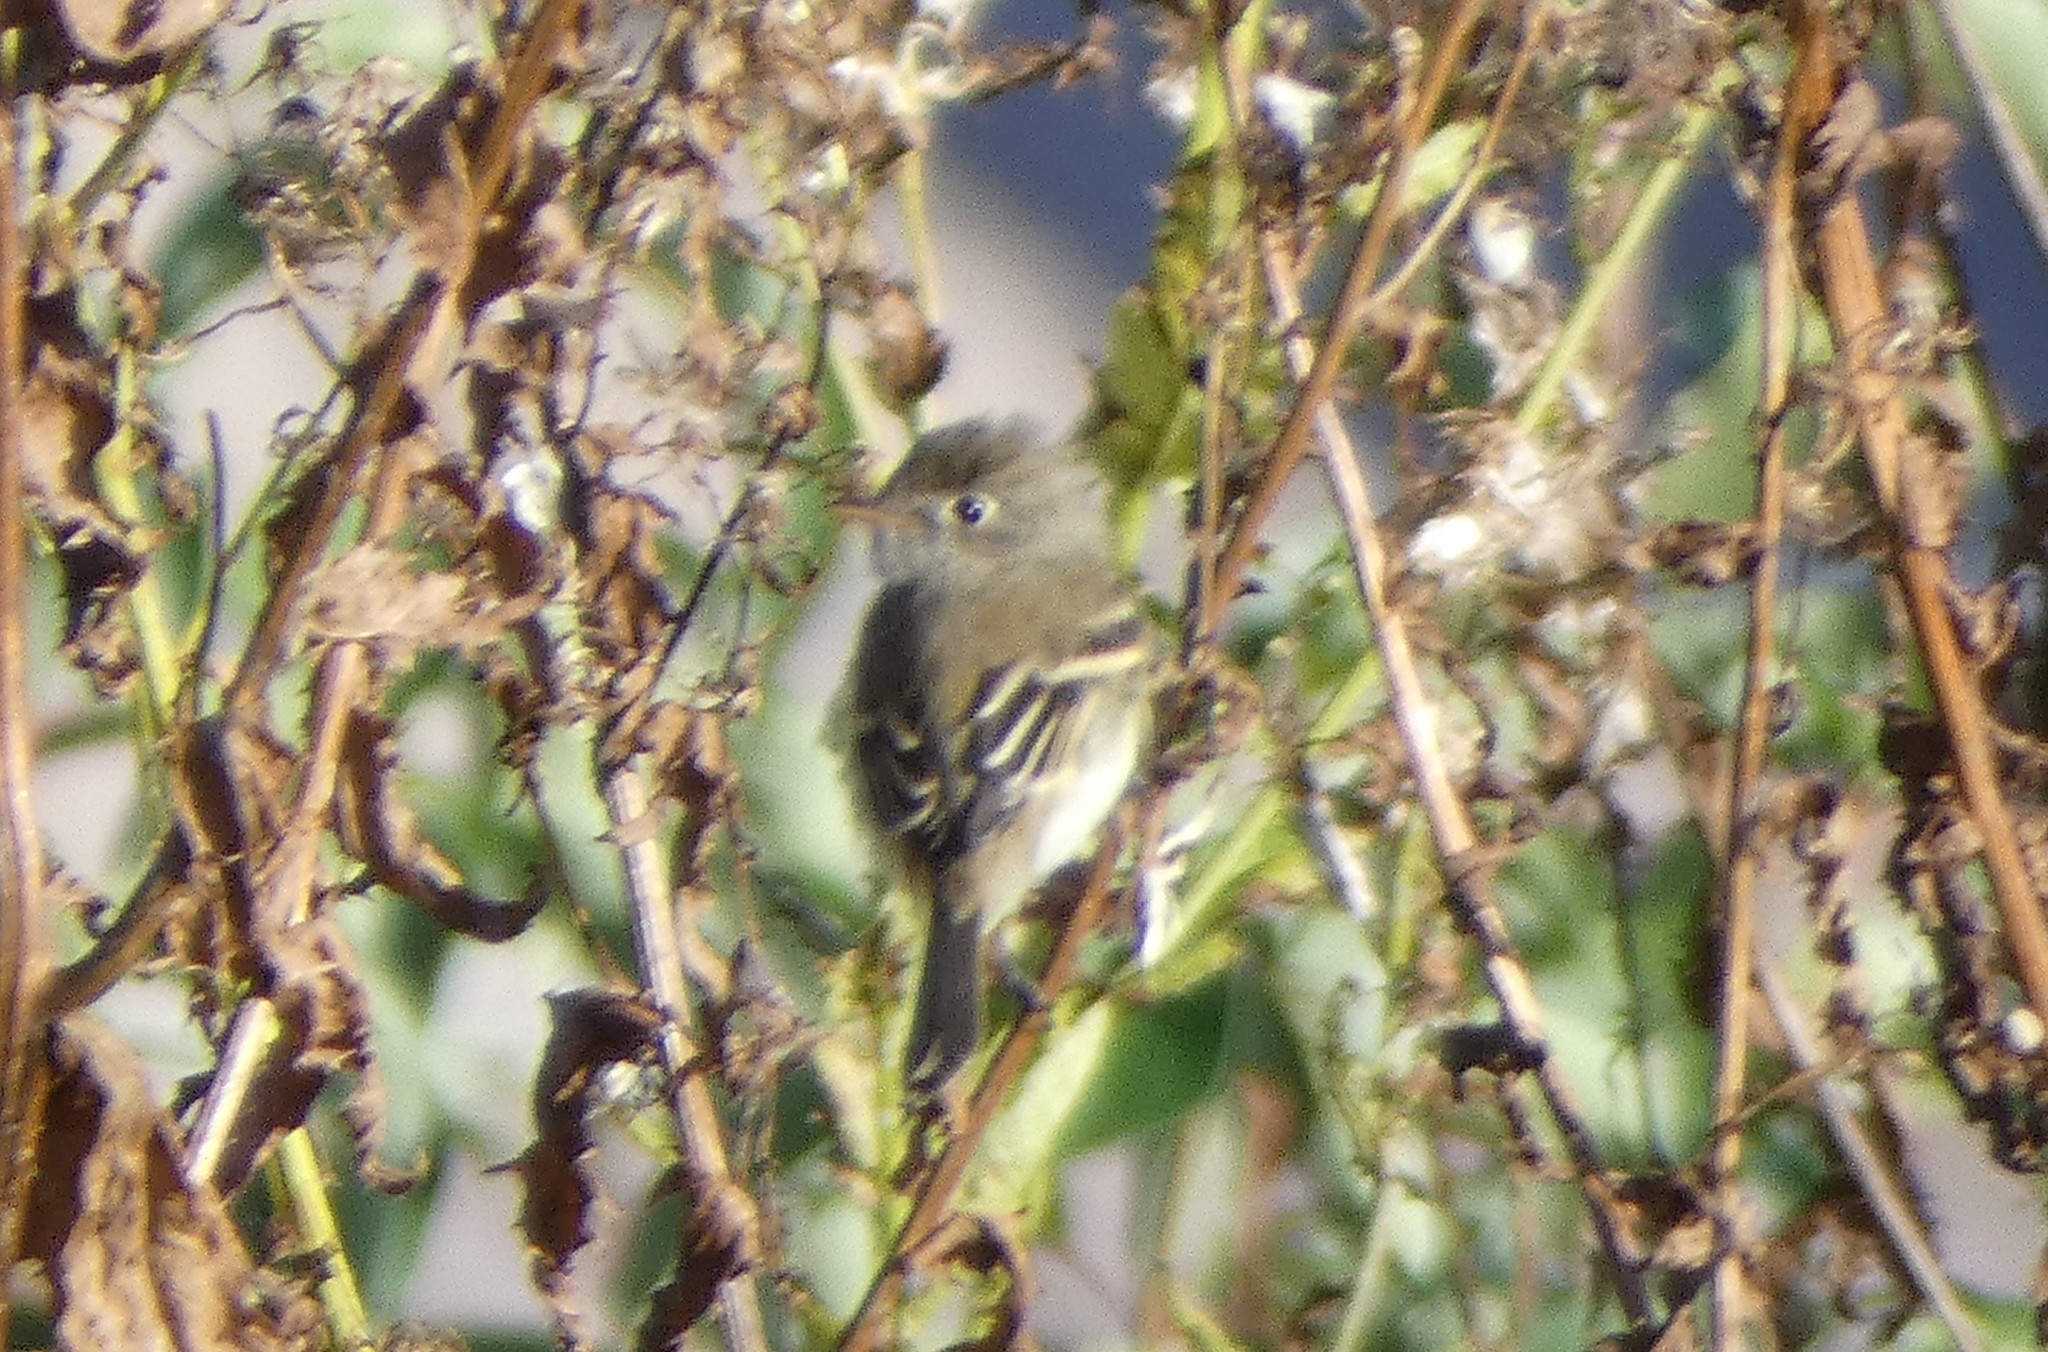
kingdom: Animalia
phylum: Chordata
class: Aves
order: Passeriformes
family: Tyrannidae
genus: Empidonax
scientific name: Empidonax minimus
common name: Least flycatcher
